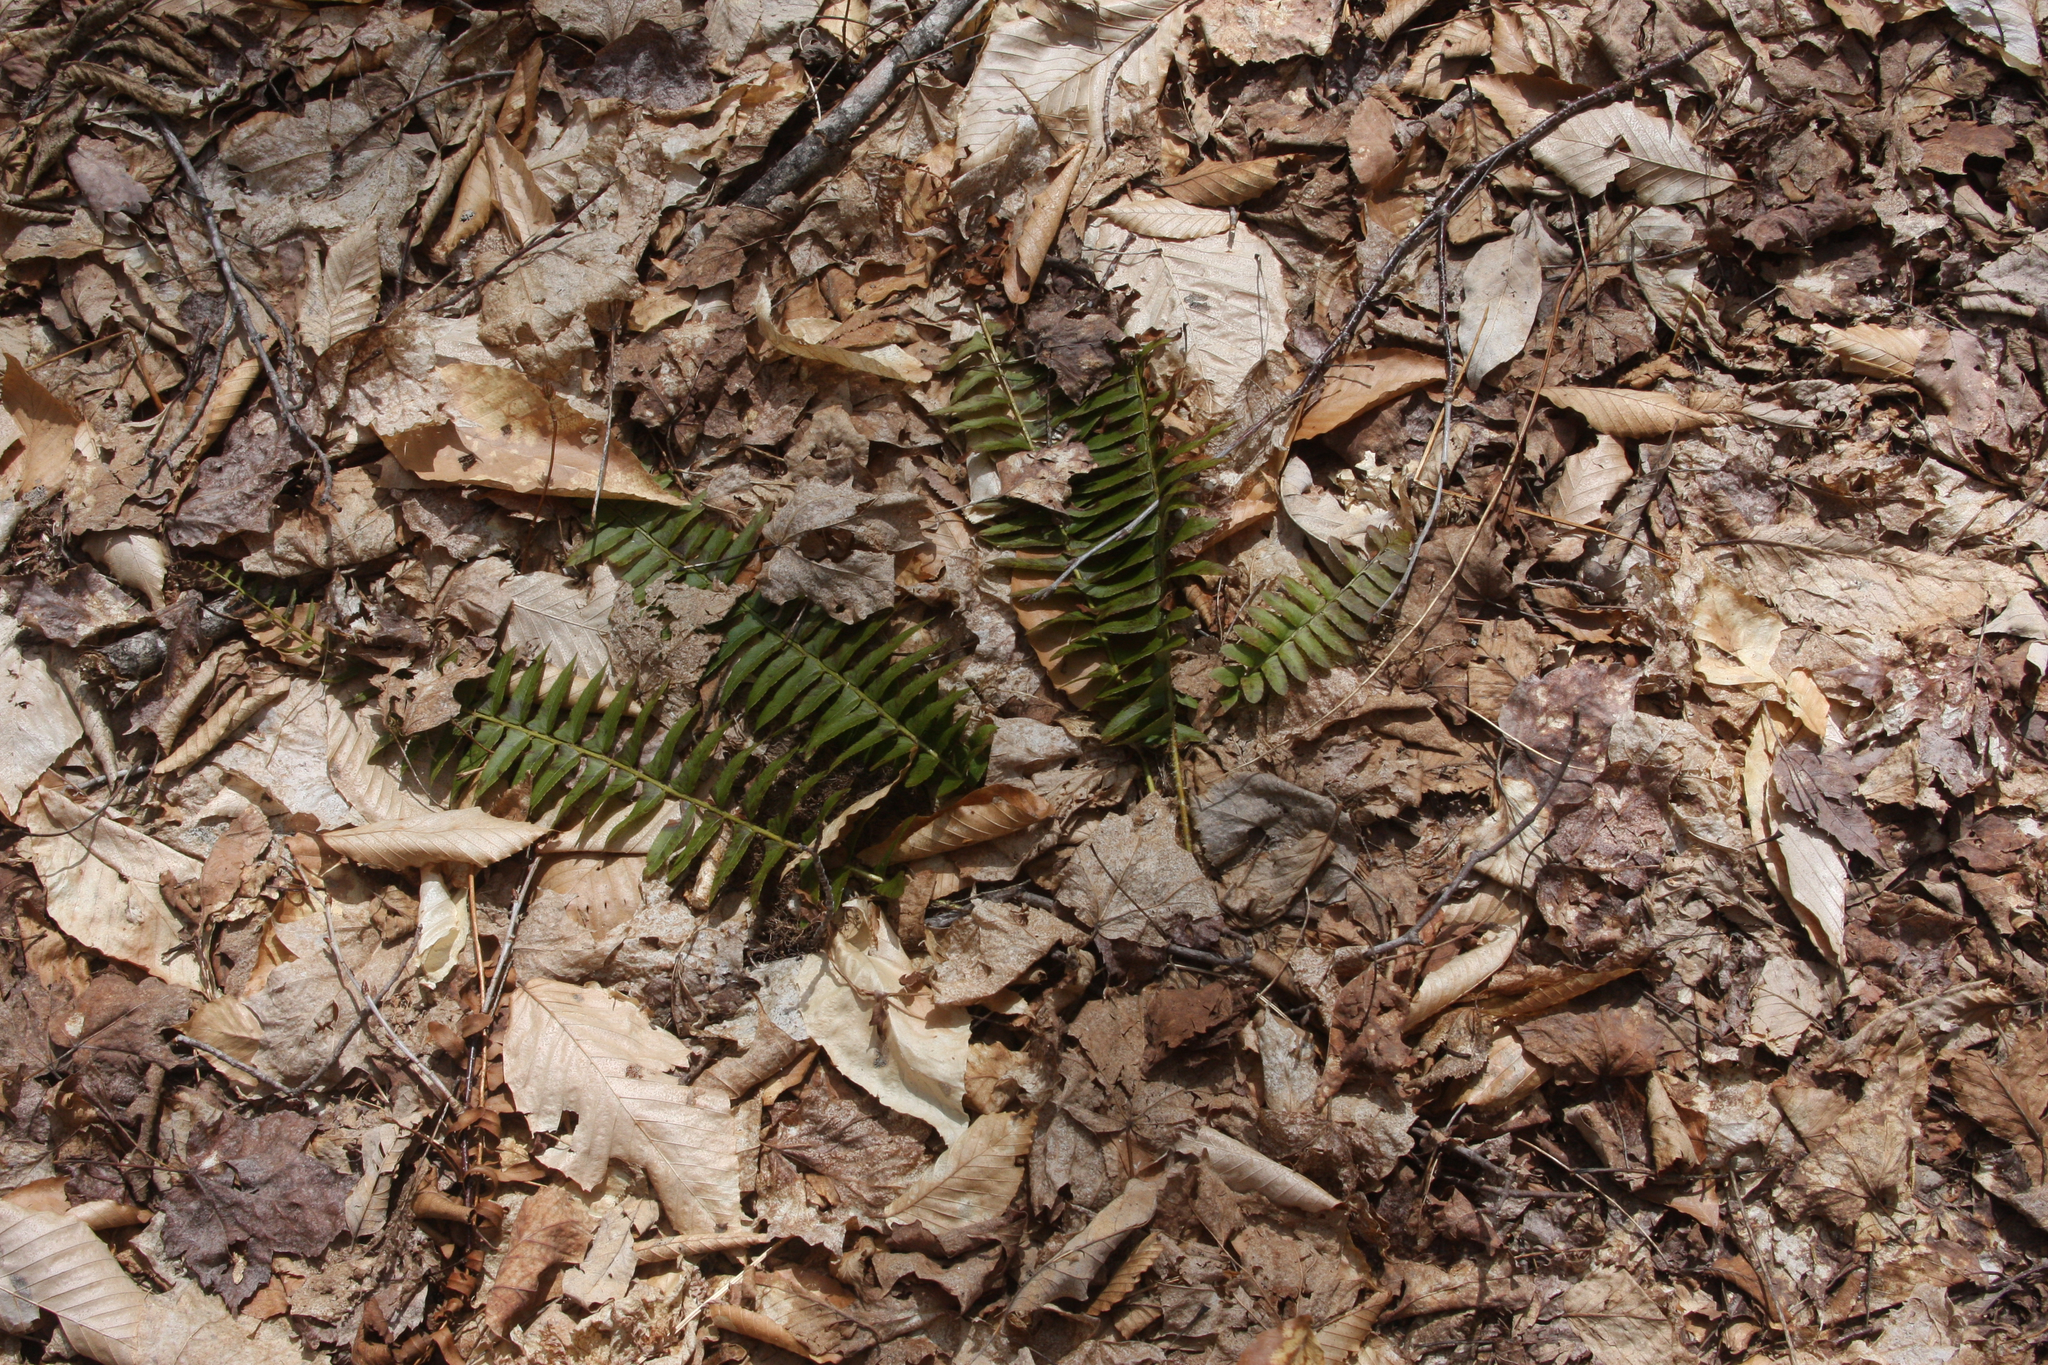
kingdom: Plantae
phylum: Tracheophyta
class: Polypodiopsida
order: Polypodiales
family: Dryopteridaceae
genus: Polystichum
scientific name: Polystichum acrostichoides
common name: Christmas fern
